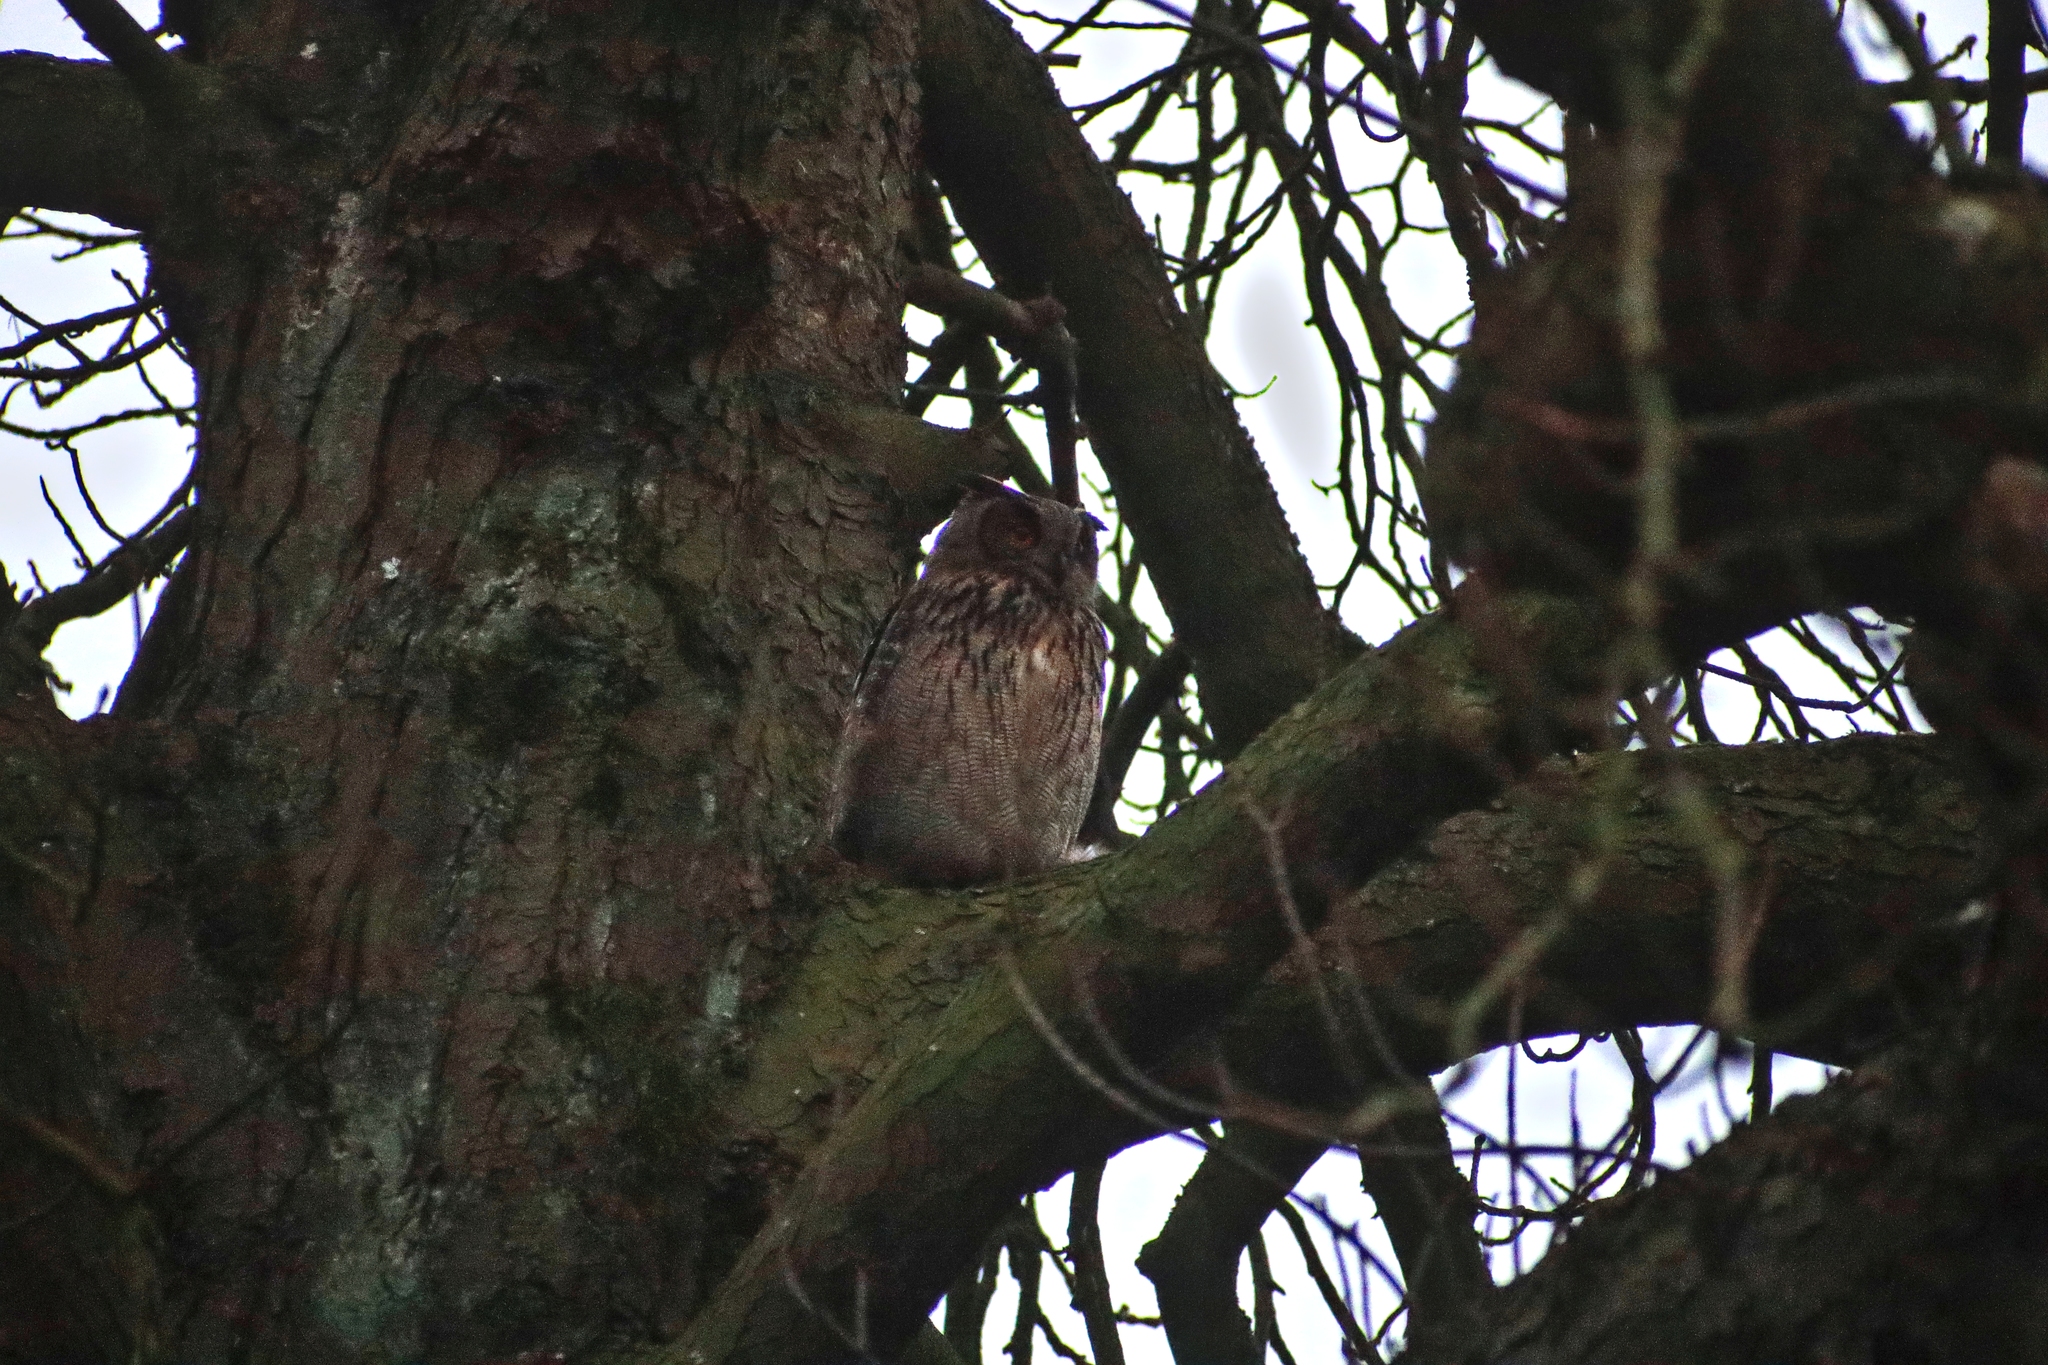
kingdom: Animalia
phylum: Chordata
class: Aves
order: Strigiformes
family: Strigidae
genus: Bubo
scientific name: Bubo bubo
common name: Eurasian eagle-owl
